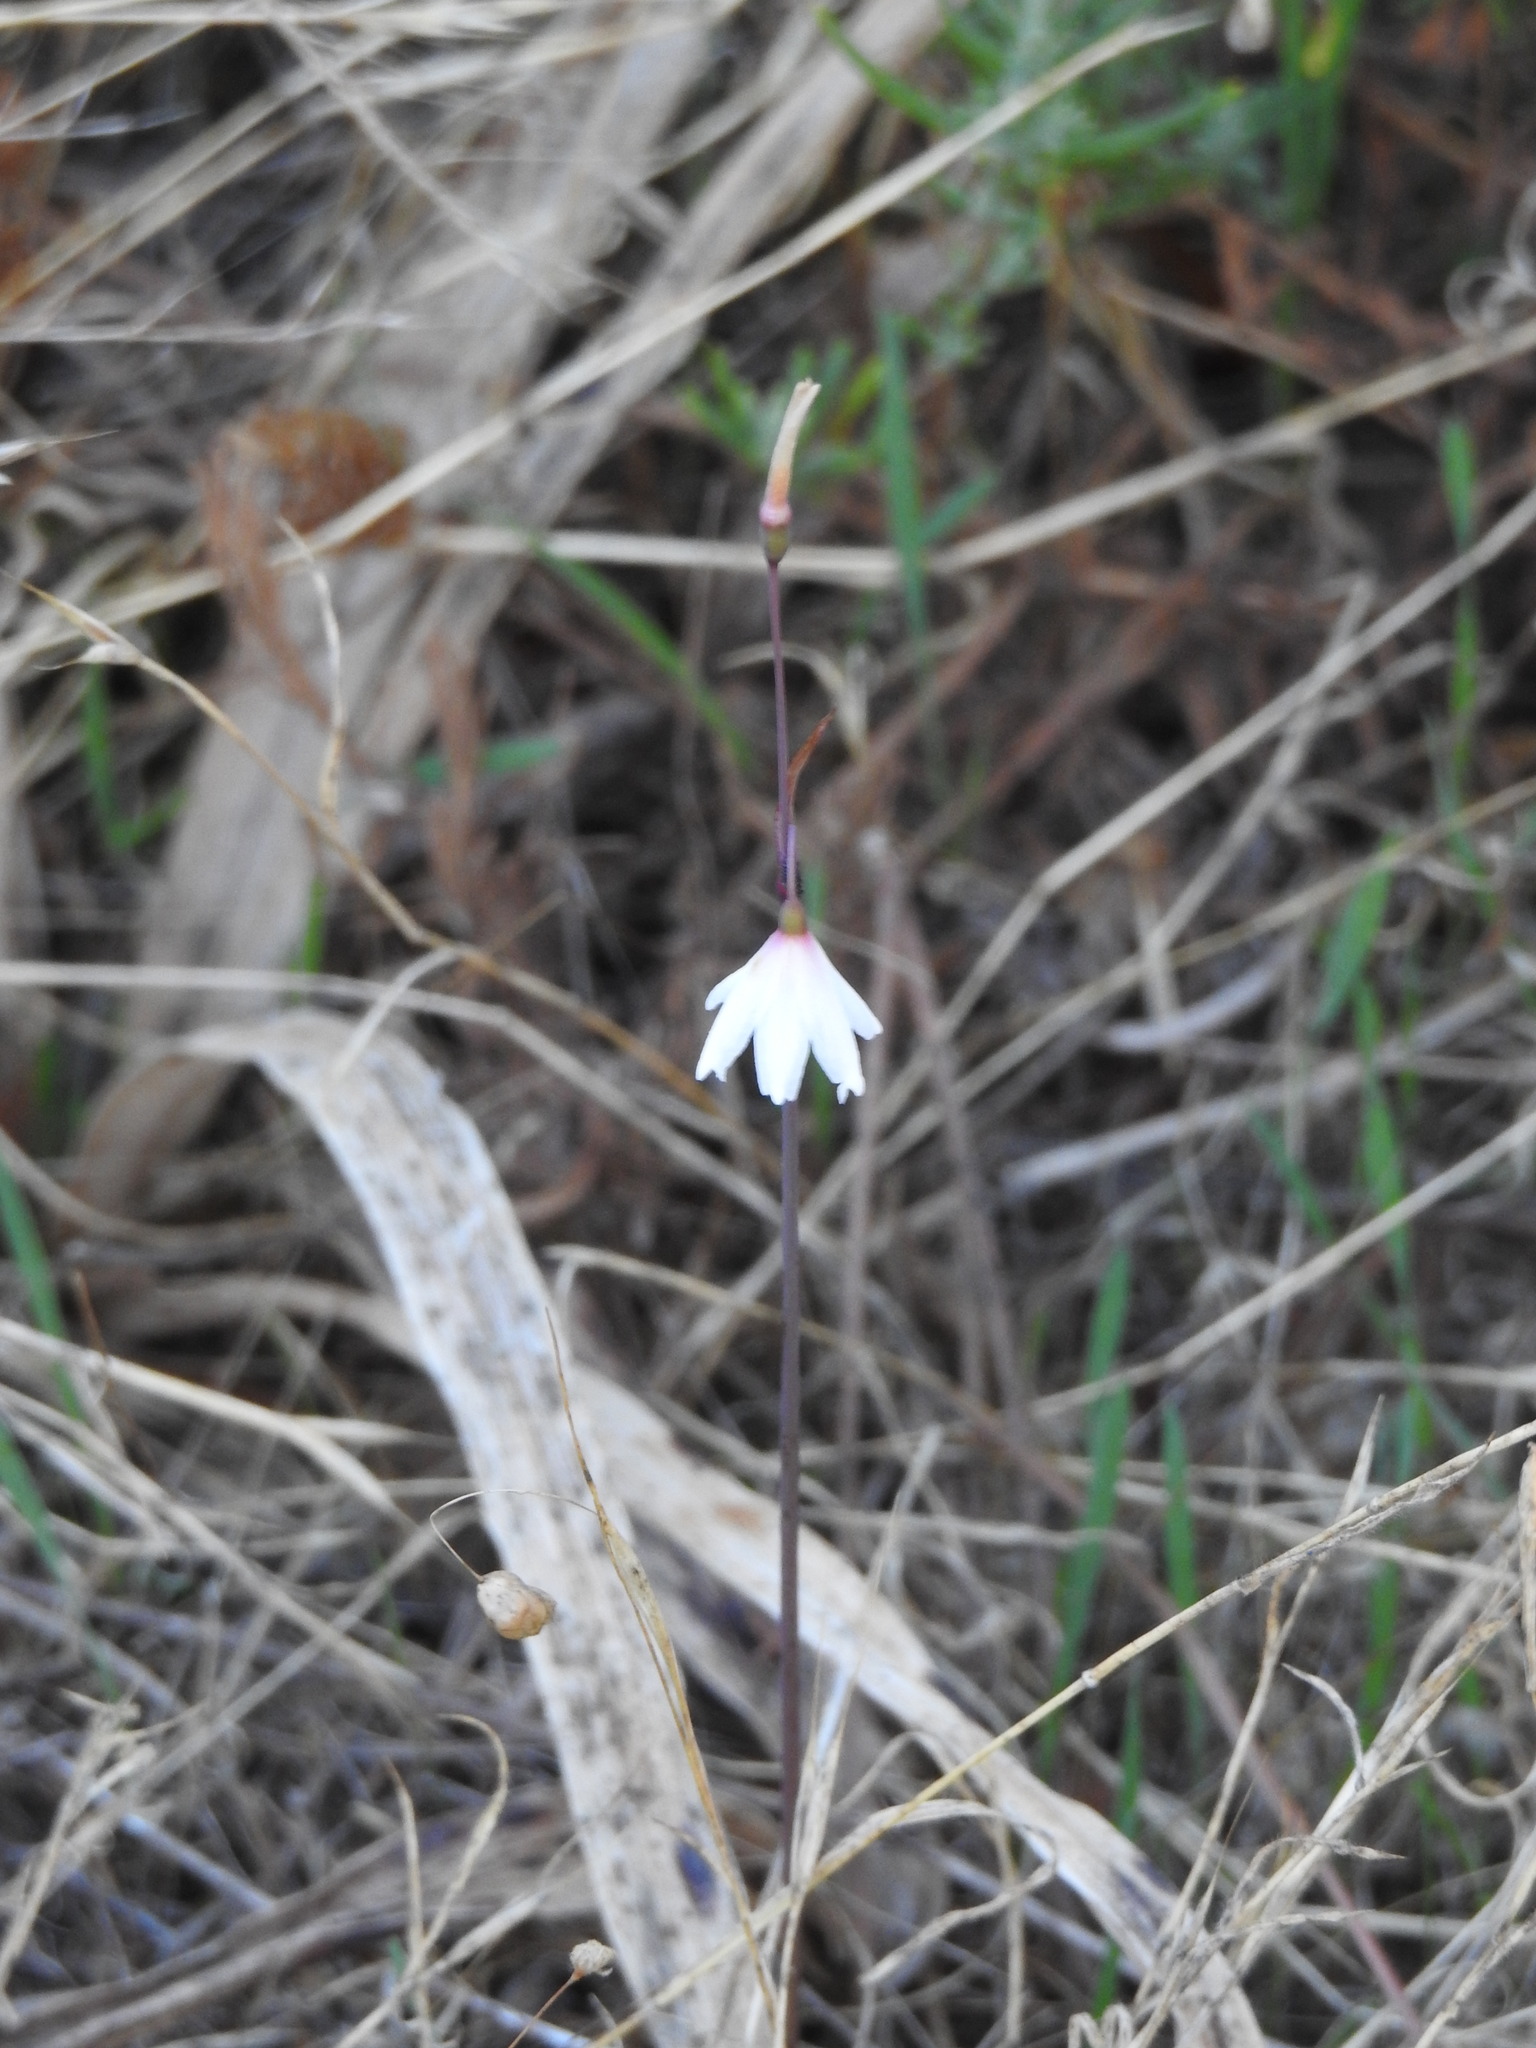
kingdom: Plantae
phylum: Tracheophyta
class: Liliopsida
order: Asparagales
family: Amaryllidaceae
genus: Acis
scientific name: Acis autumnalis
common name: Autumn snowflake
